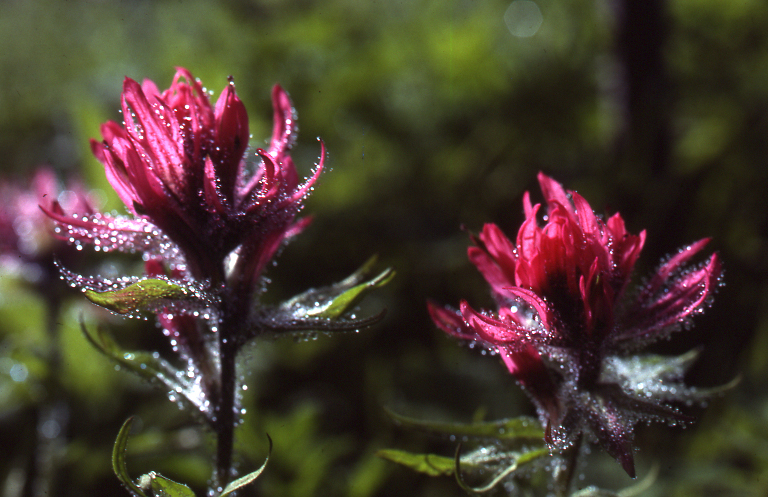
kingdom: Plantae
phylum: Tracheophyta
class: Magnoliopsida
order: Lamiales
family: Orobanchaceae
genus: Castilleja
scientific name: Castilleja parviflora
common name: Mountain paintbrush
